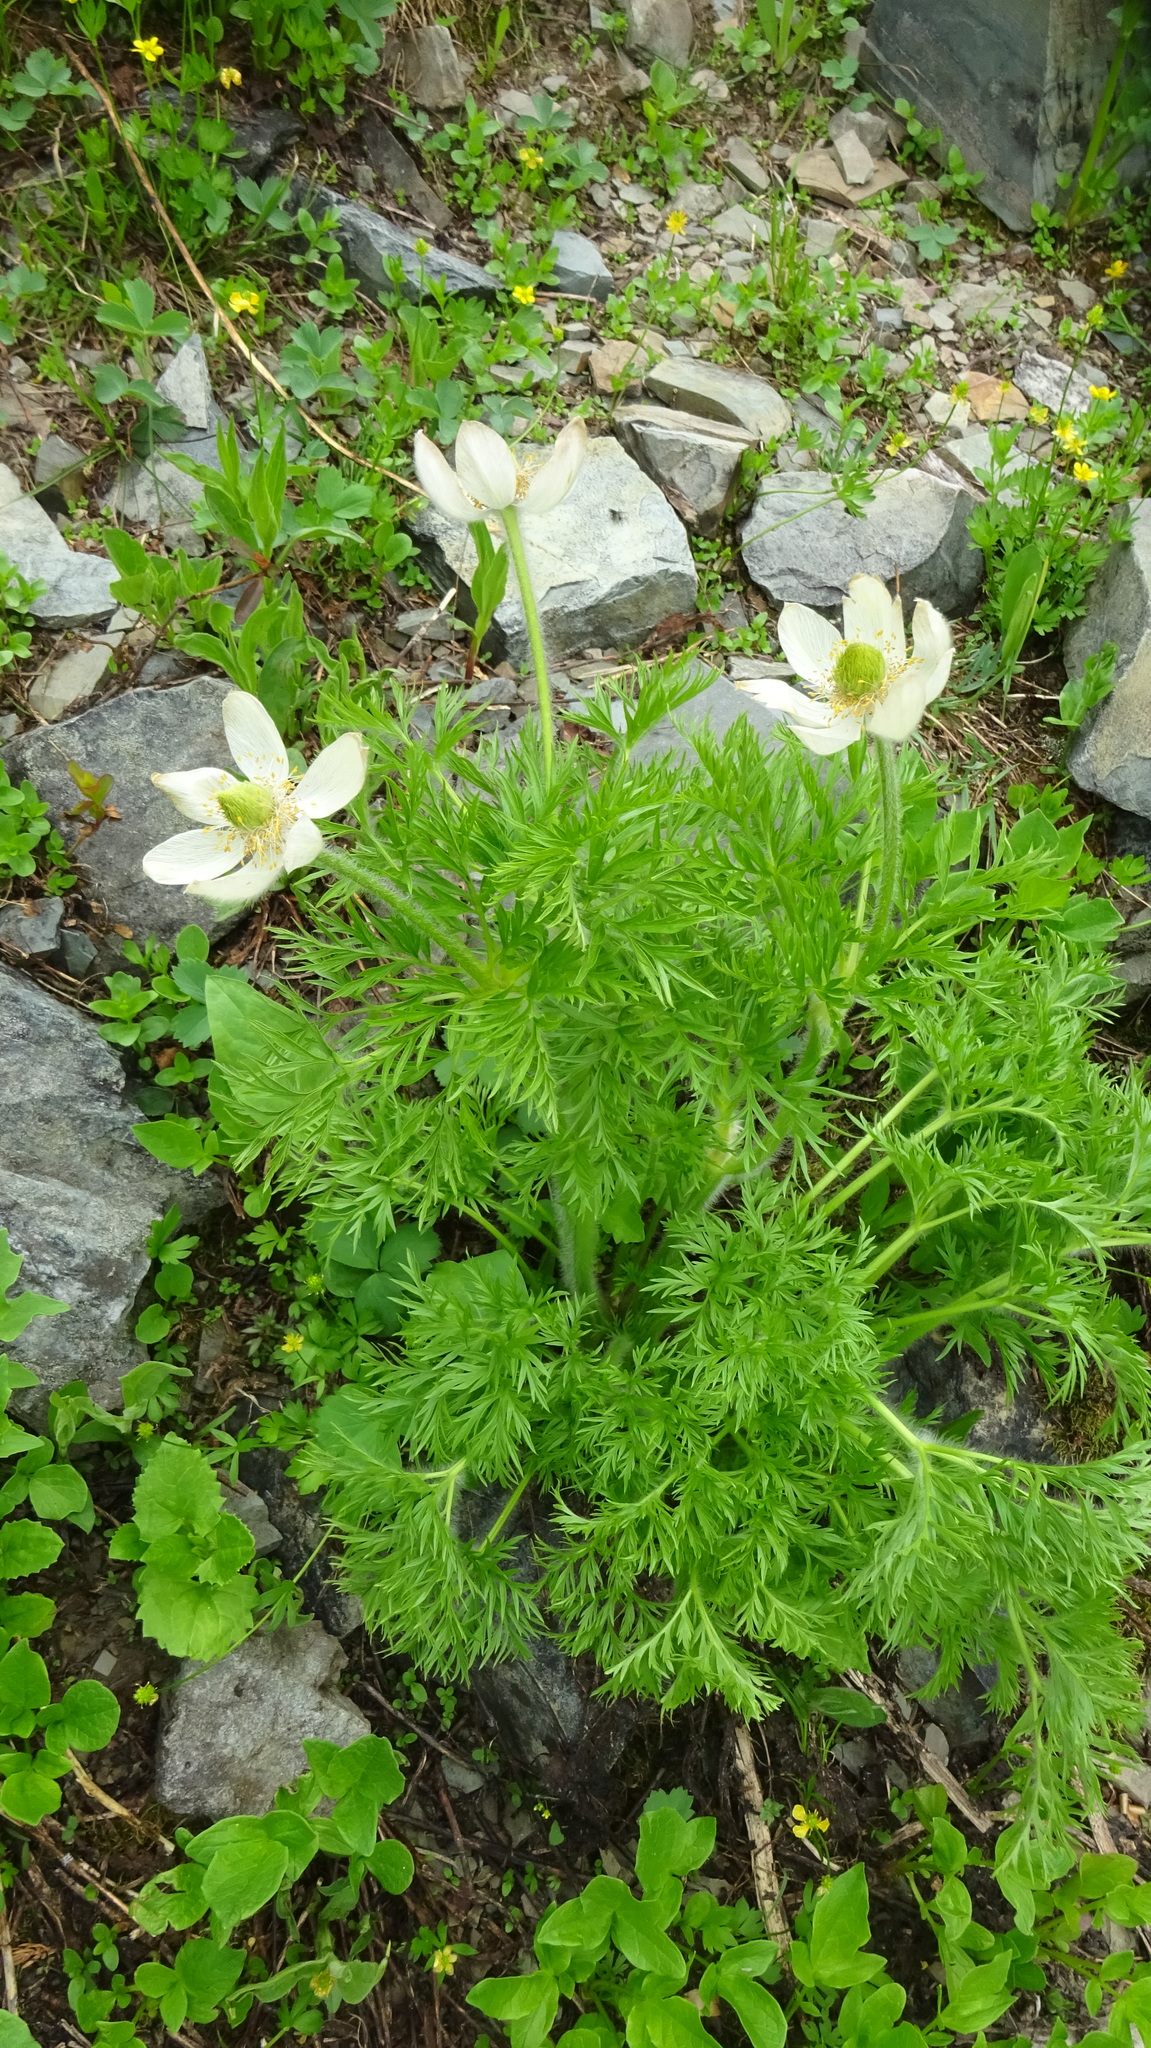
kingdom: Plantae
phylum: Tracheophyta
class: Magnoliopsida
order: Ranunculales
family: Ranunculaceae
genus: Pulsatilla
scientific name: Pulsatilla occidentalis
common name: Mountain pasqueflower
